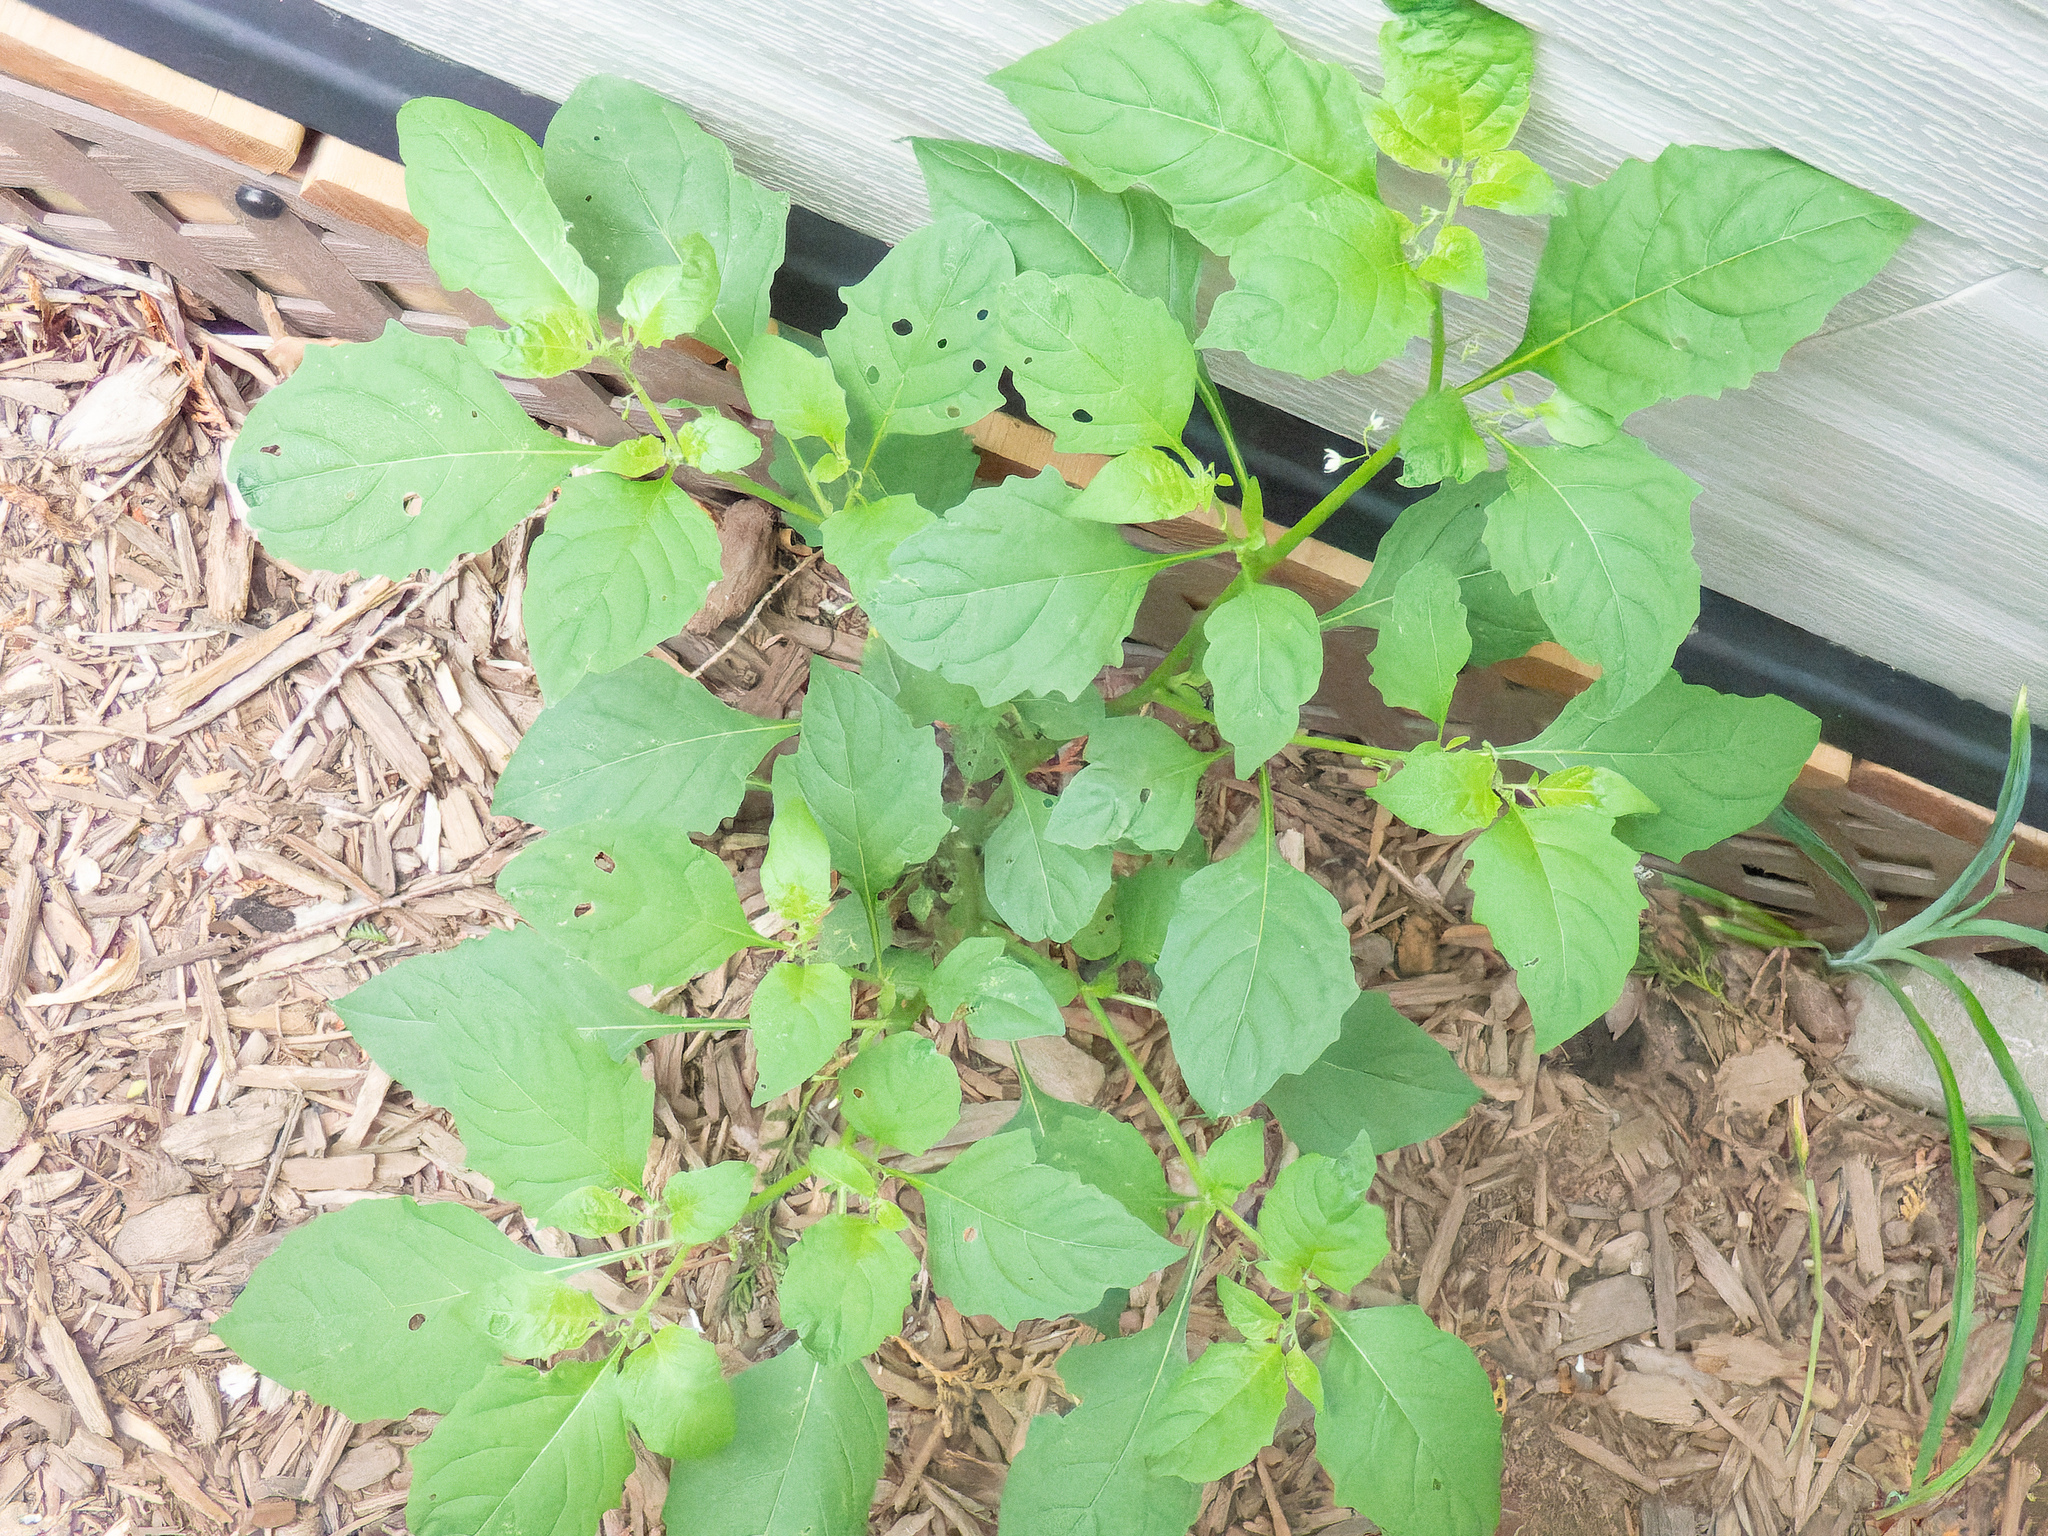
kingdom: Plantae
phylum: Tracheophyta
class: Magnoliopsida
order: Solanales
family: Solanaceae
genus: Solanum
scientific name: Solanum emulans
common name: Eastern black nightshade
